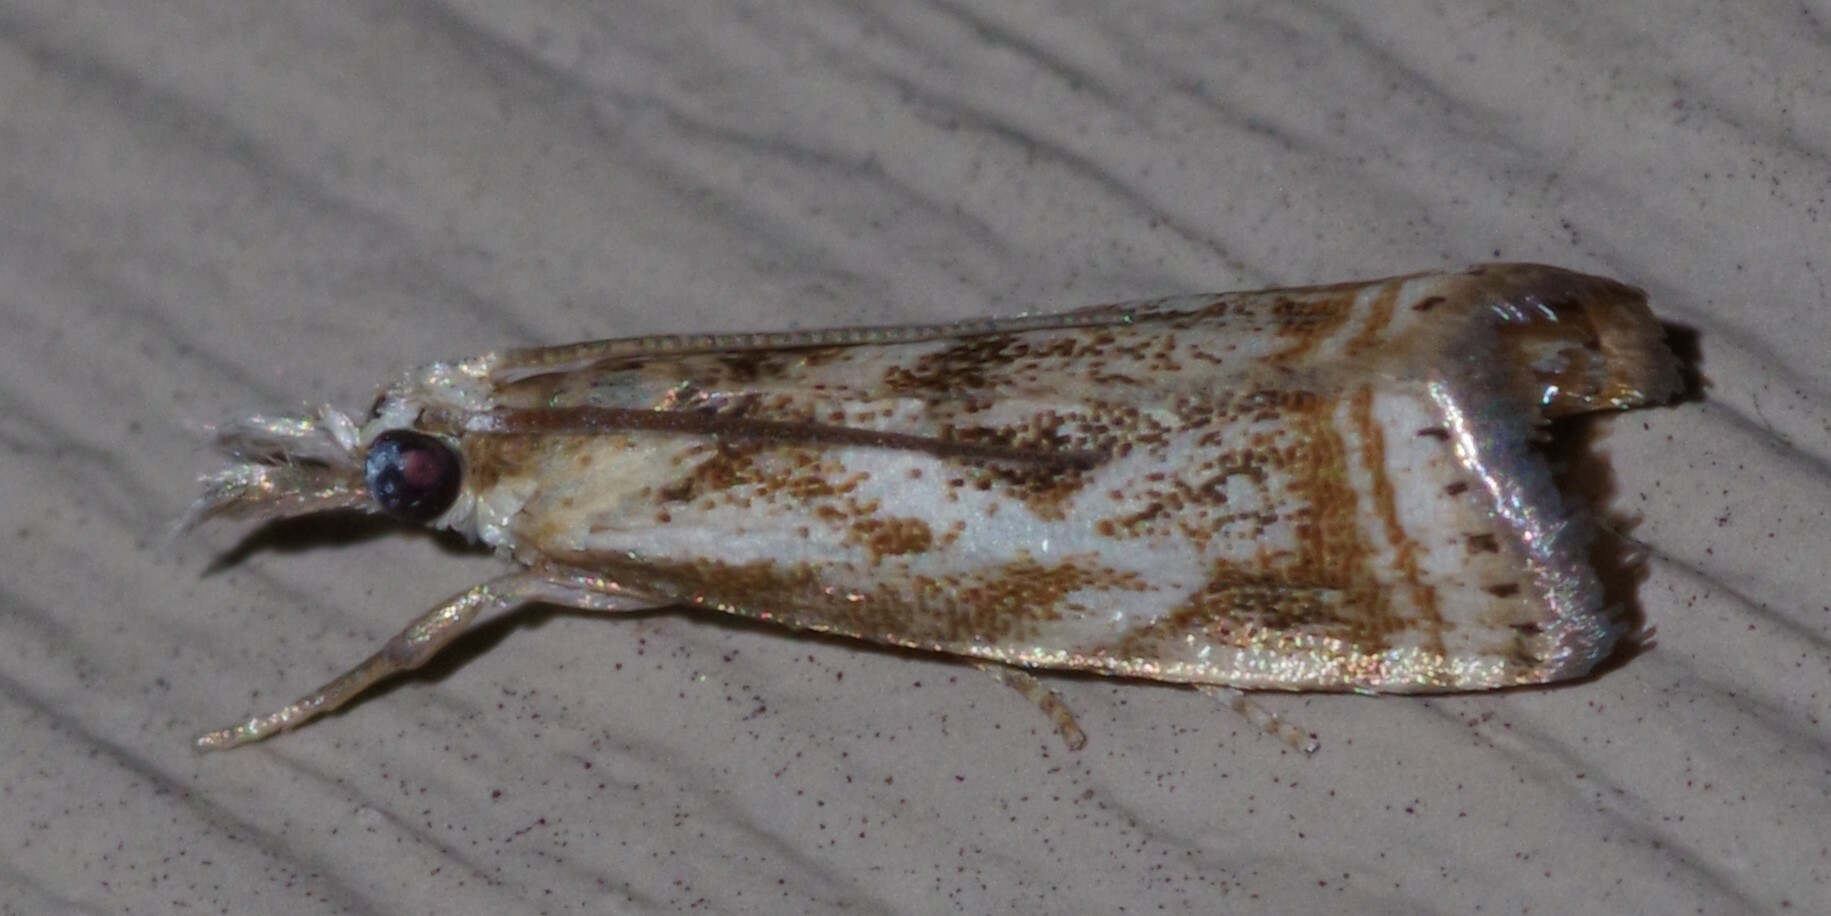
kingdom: Animalia
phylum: Arthropoda
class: Insecta
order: Lepidoptera
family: Crambidae
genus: Microcrambus
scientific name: Microcrambus elegans
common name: Elegant grass-veneer
